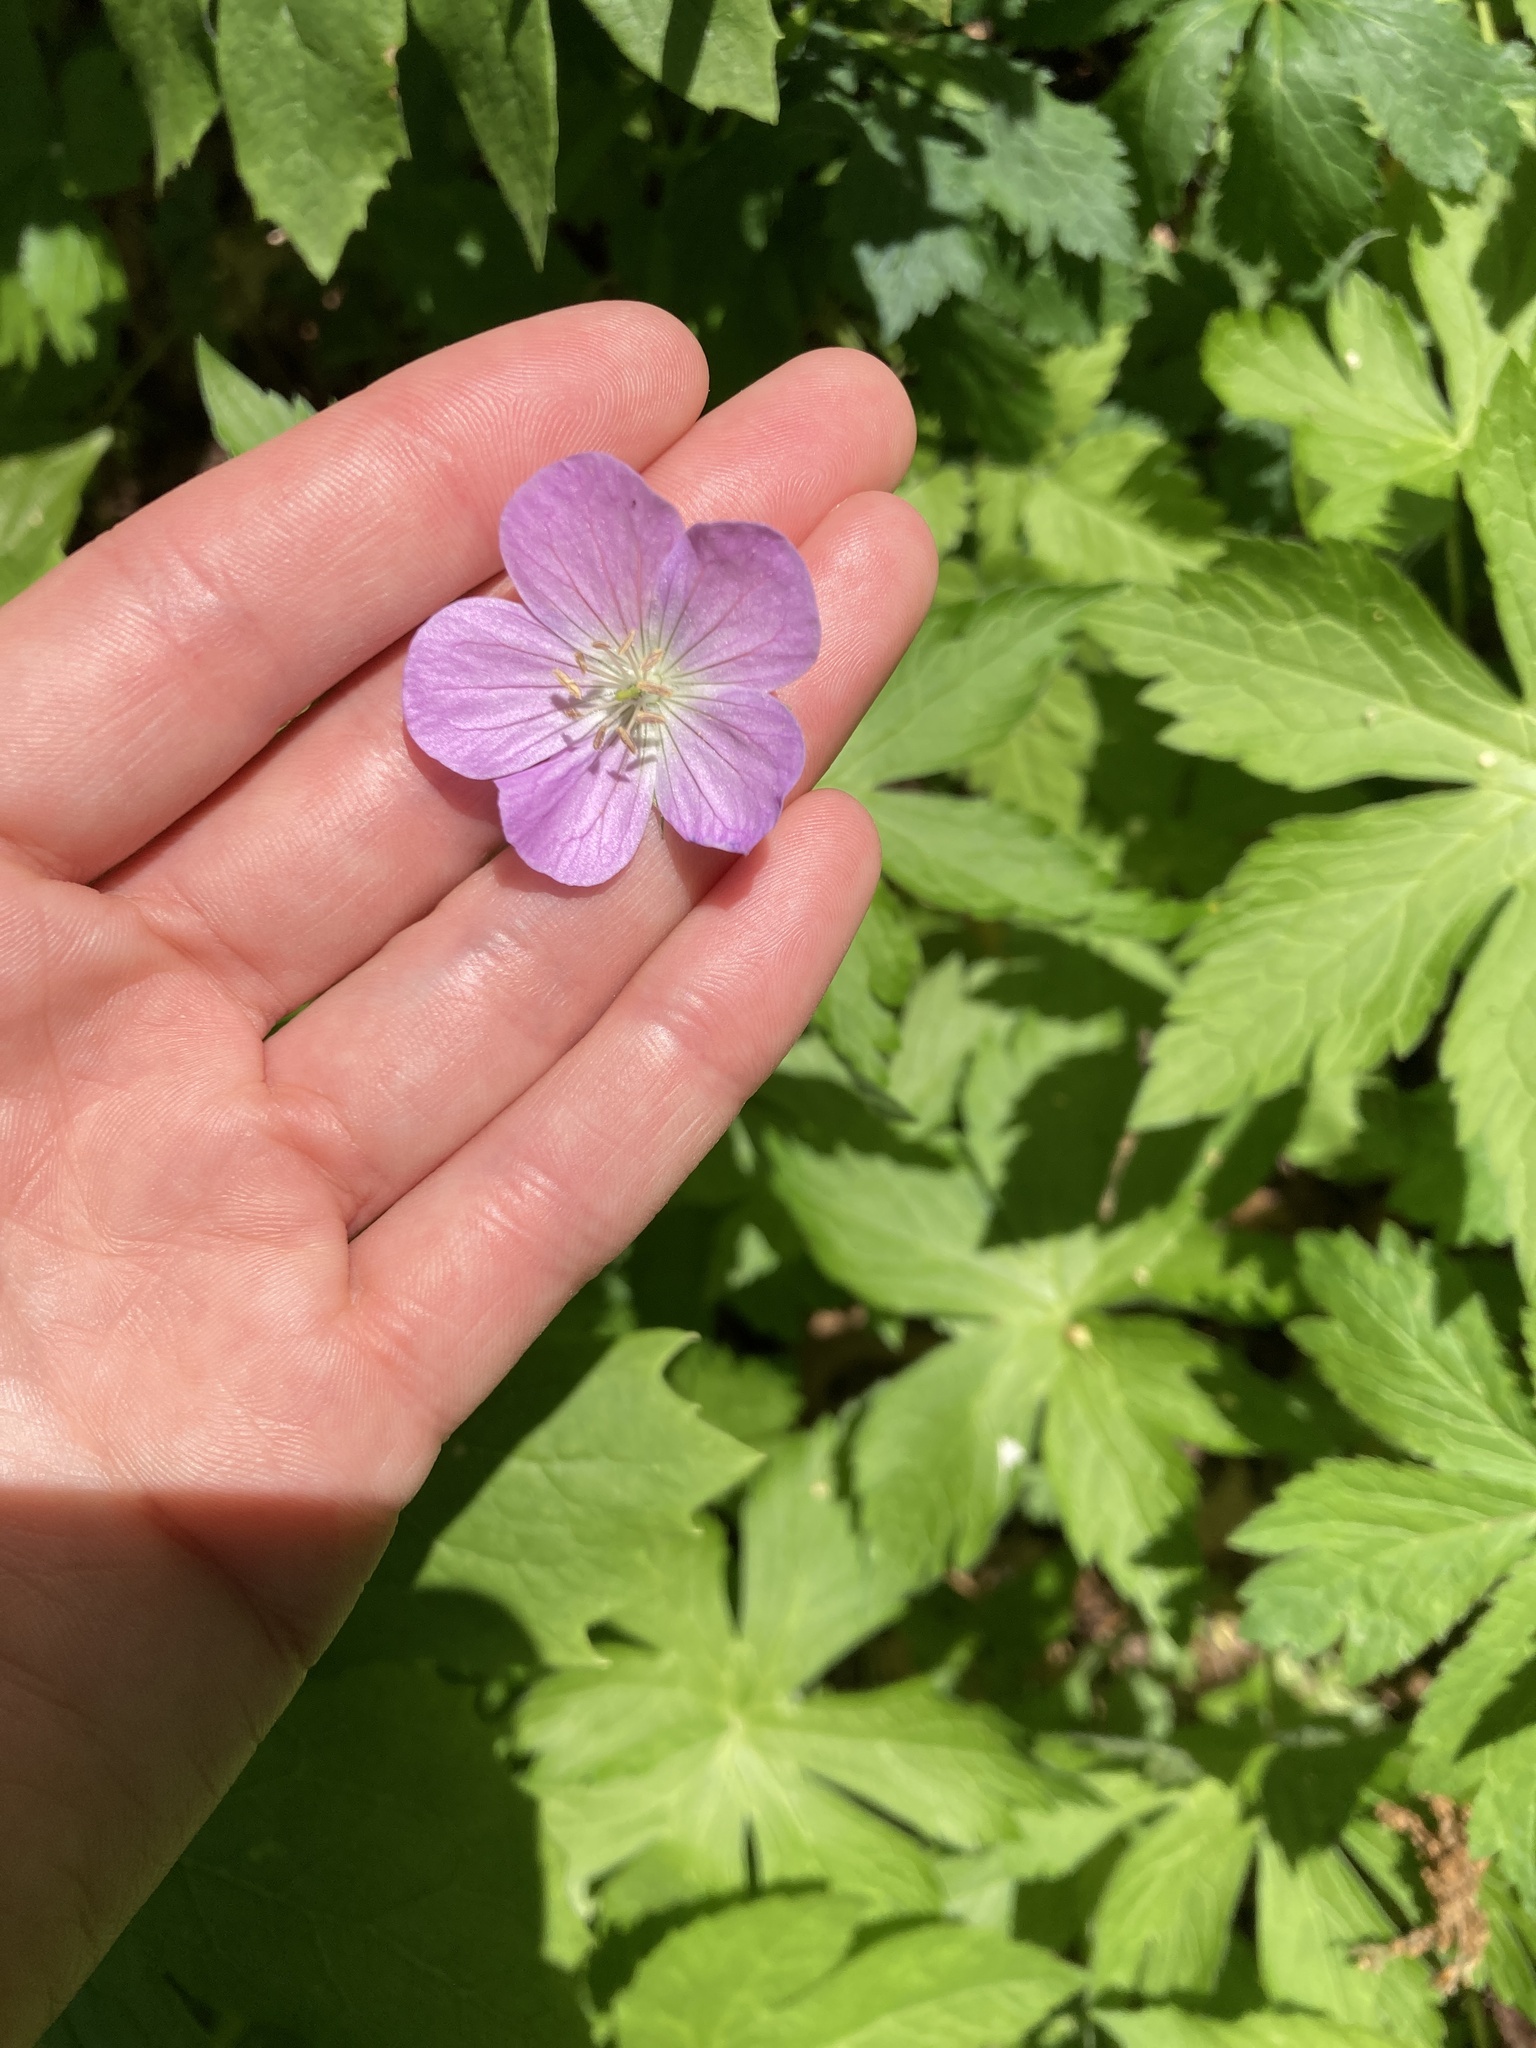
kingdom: Plantae
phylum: Tracheophyta
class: Magnoliopsida
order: Geraniales
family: Geraniaceae
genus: Geranium
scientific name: Geranium maculatum
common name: Spotted geranium
